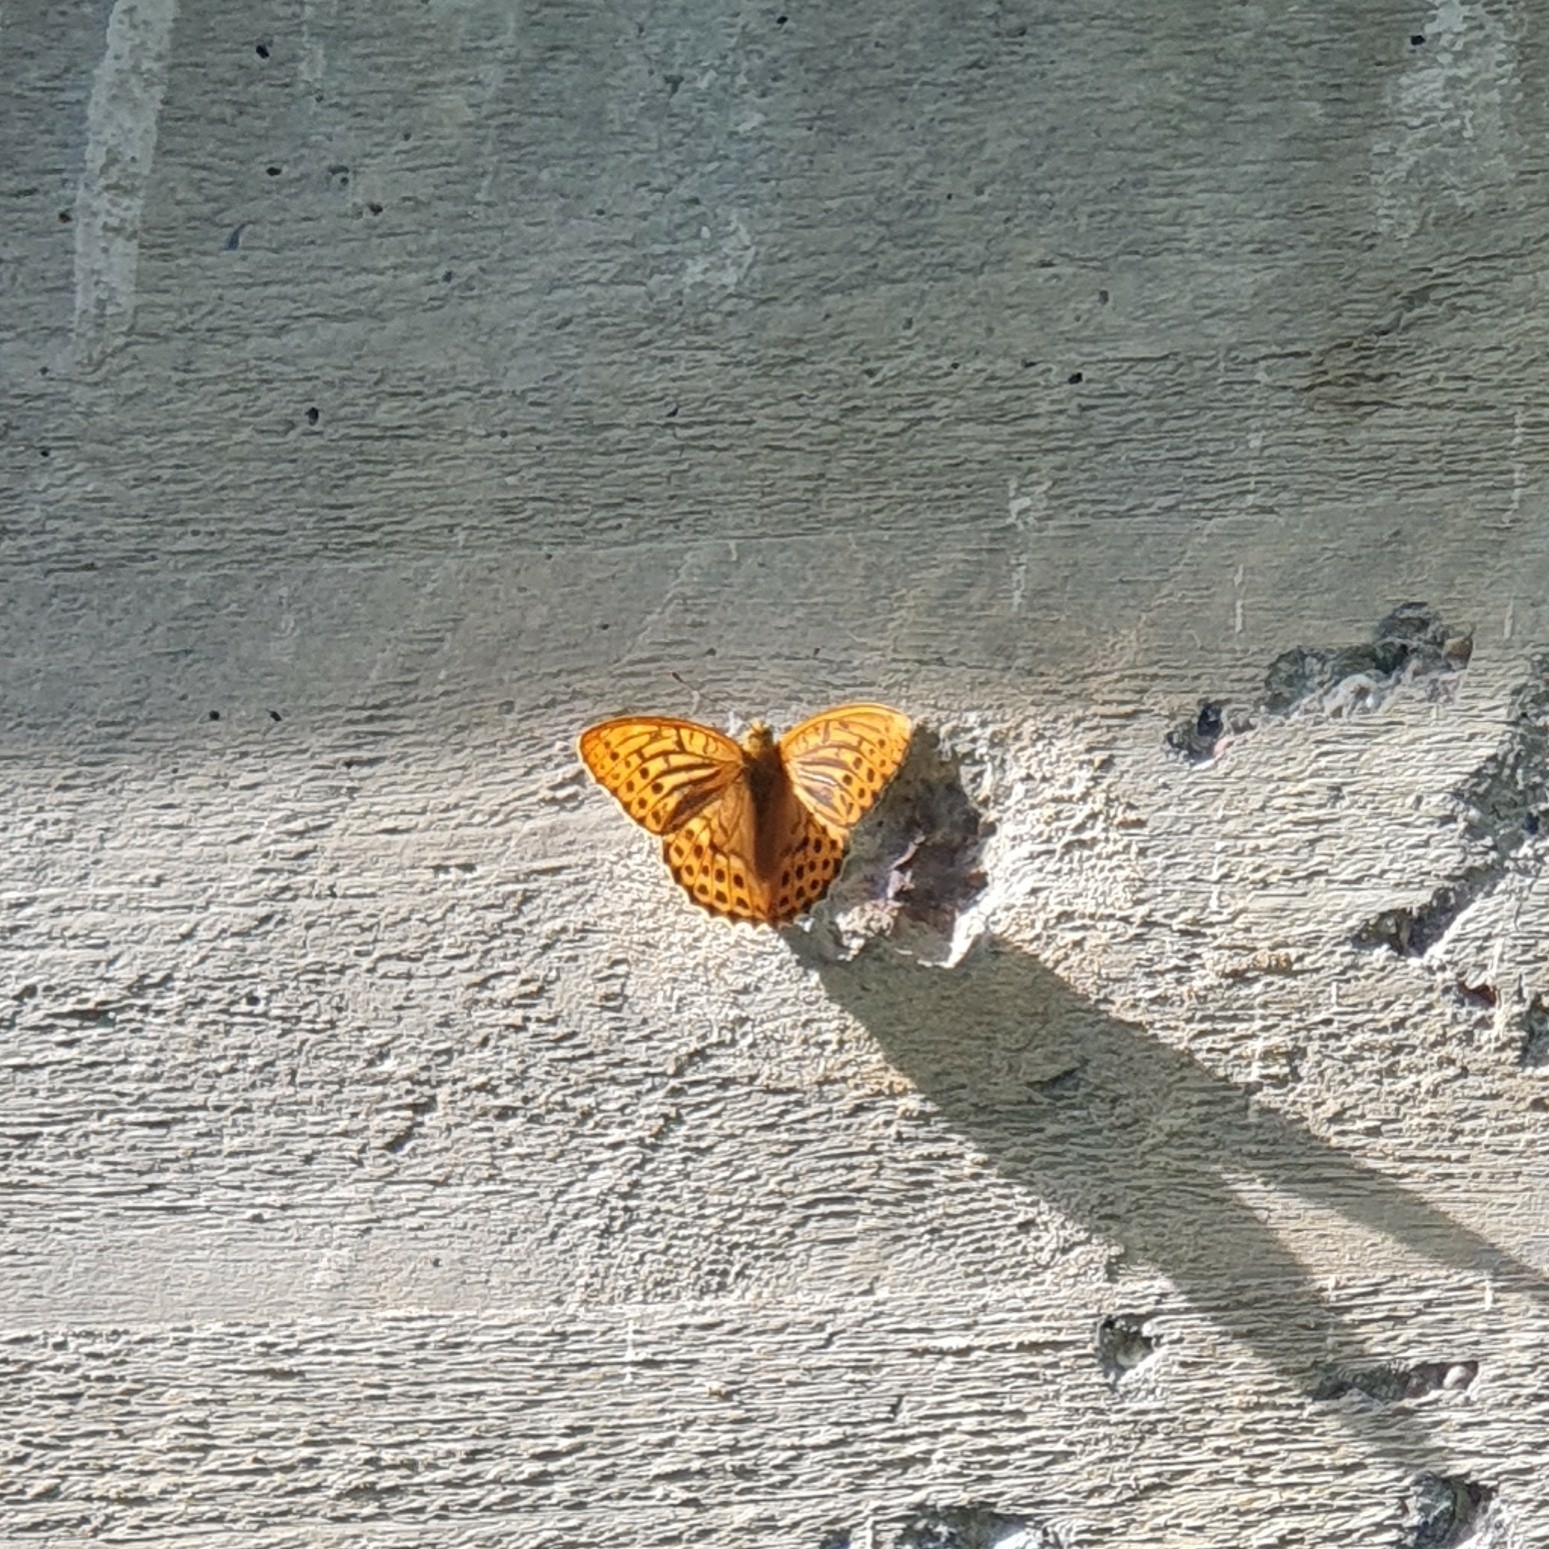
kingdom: Animalia
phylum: Arthropoda
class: Insecta
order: Lepidoptera
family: Nymphalidae
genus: Argynnis
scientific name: Argynnis paphia
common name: Silver-washed fritillary
